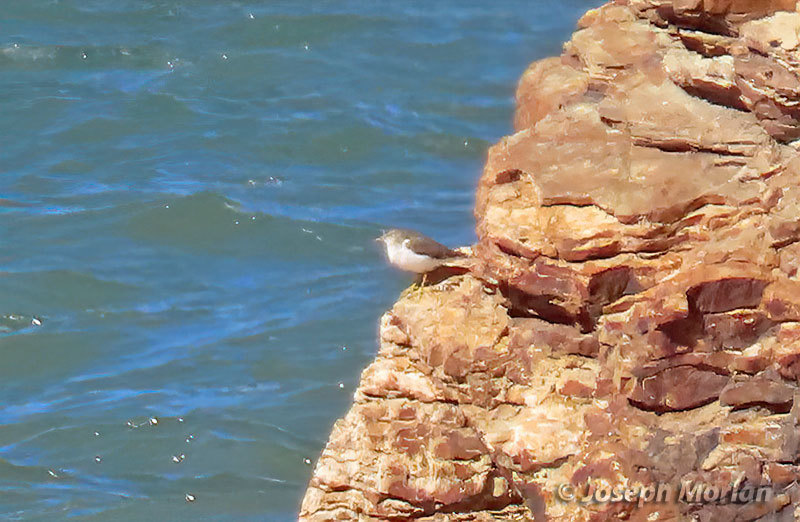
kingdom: Animalia
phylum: Chordata
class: Aves
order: Charadriiformes
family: Scolopacidae
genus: Actitis
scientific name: Actitis macularius
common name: Spotted sandpiper
